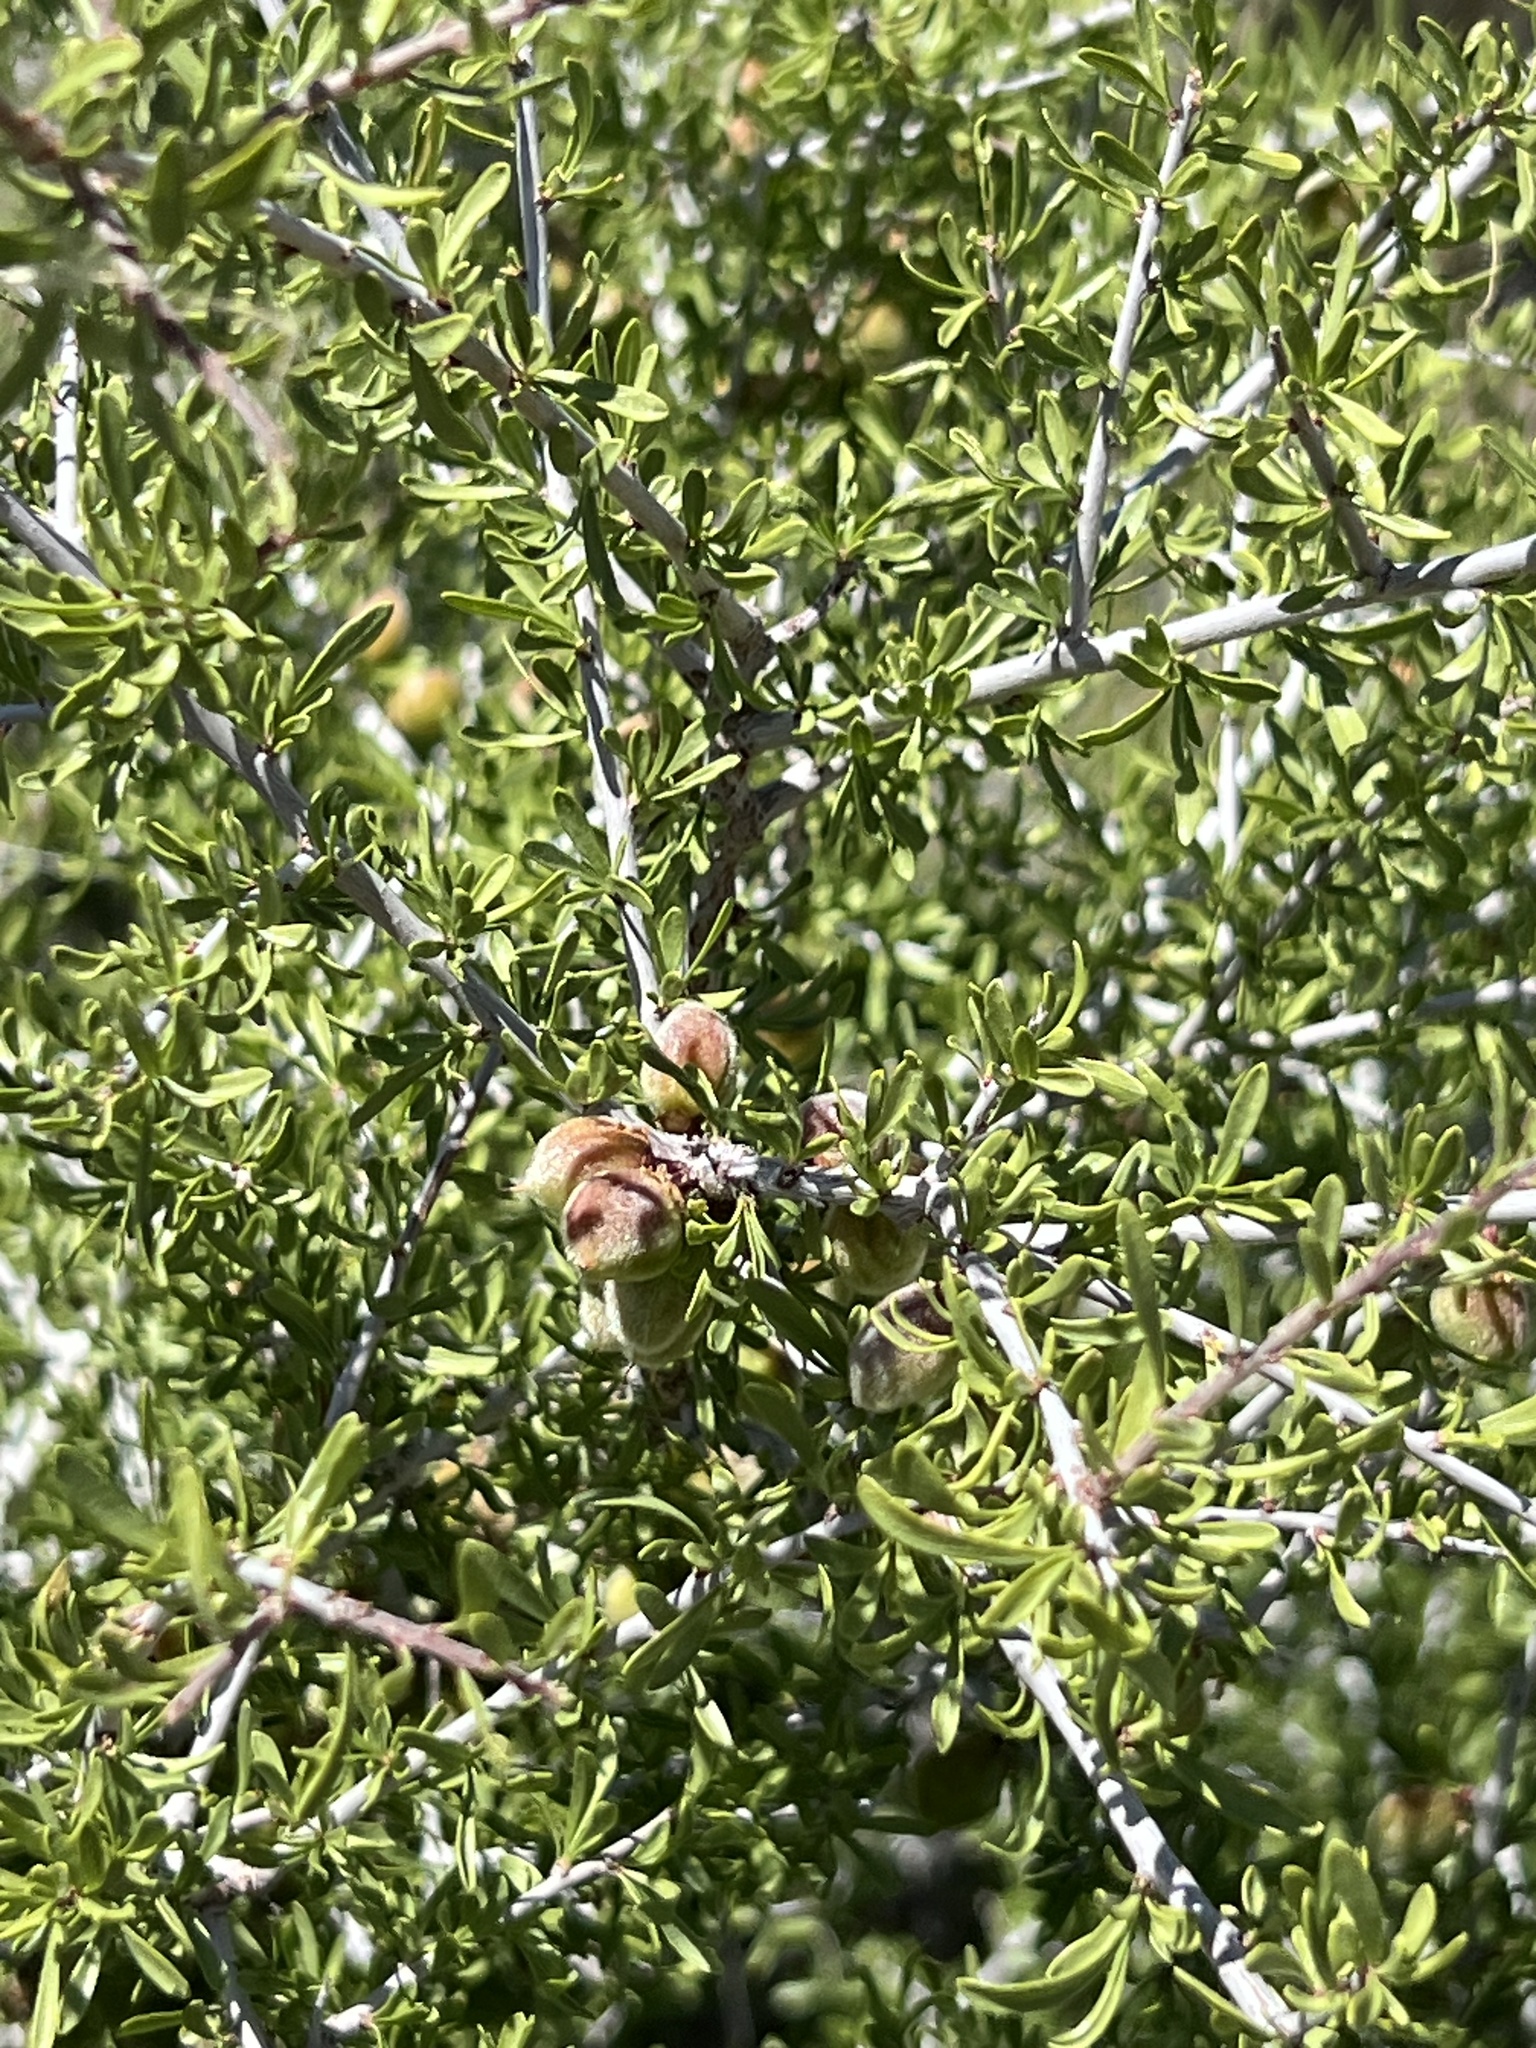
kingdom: Plantae
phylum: Tracheophyta
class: Magnoliopsida
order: Rosales
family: Rosaceae
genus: Prunus
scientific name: Prunus fasciculata
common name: Desert almond
